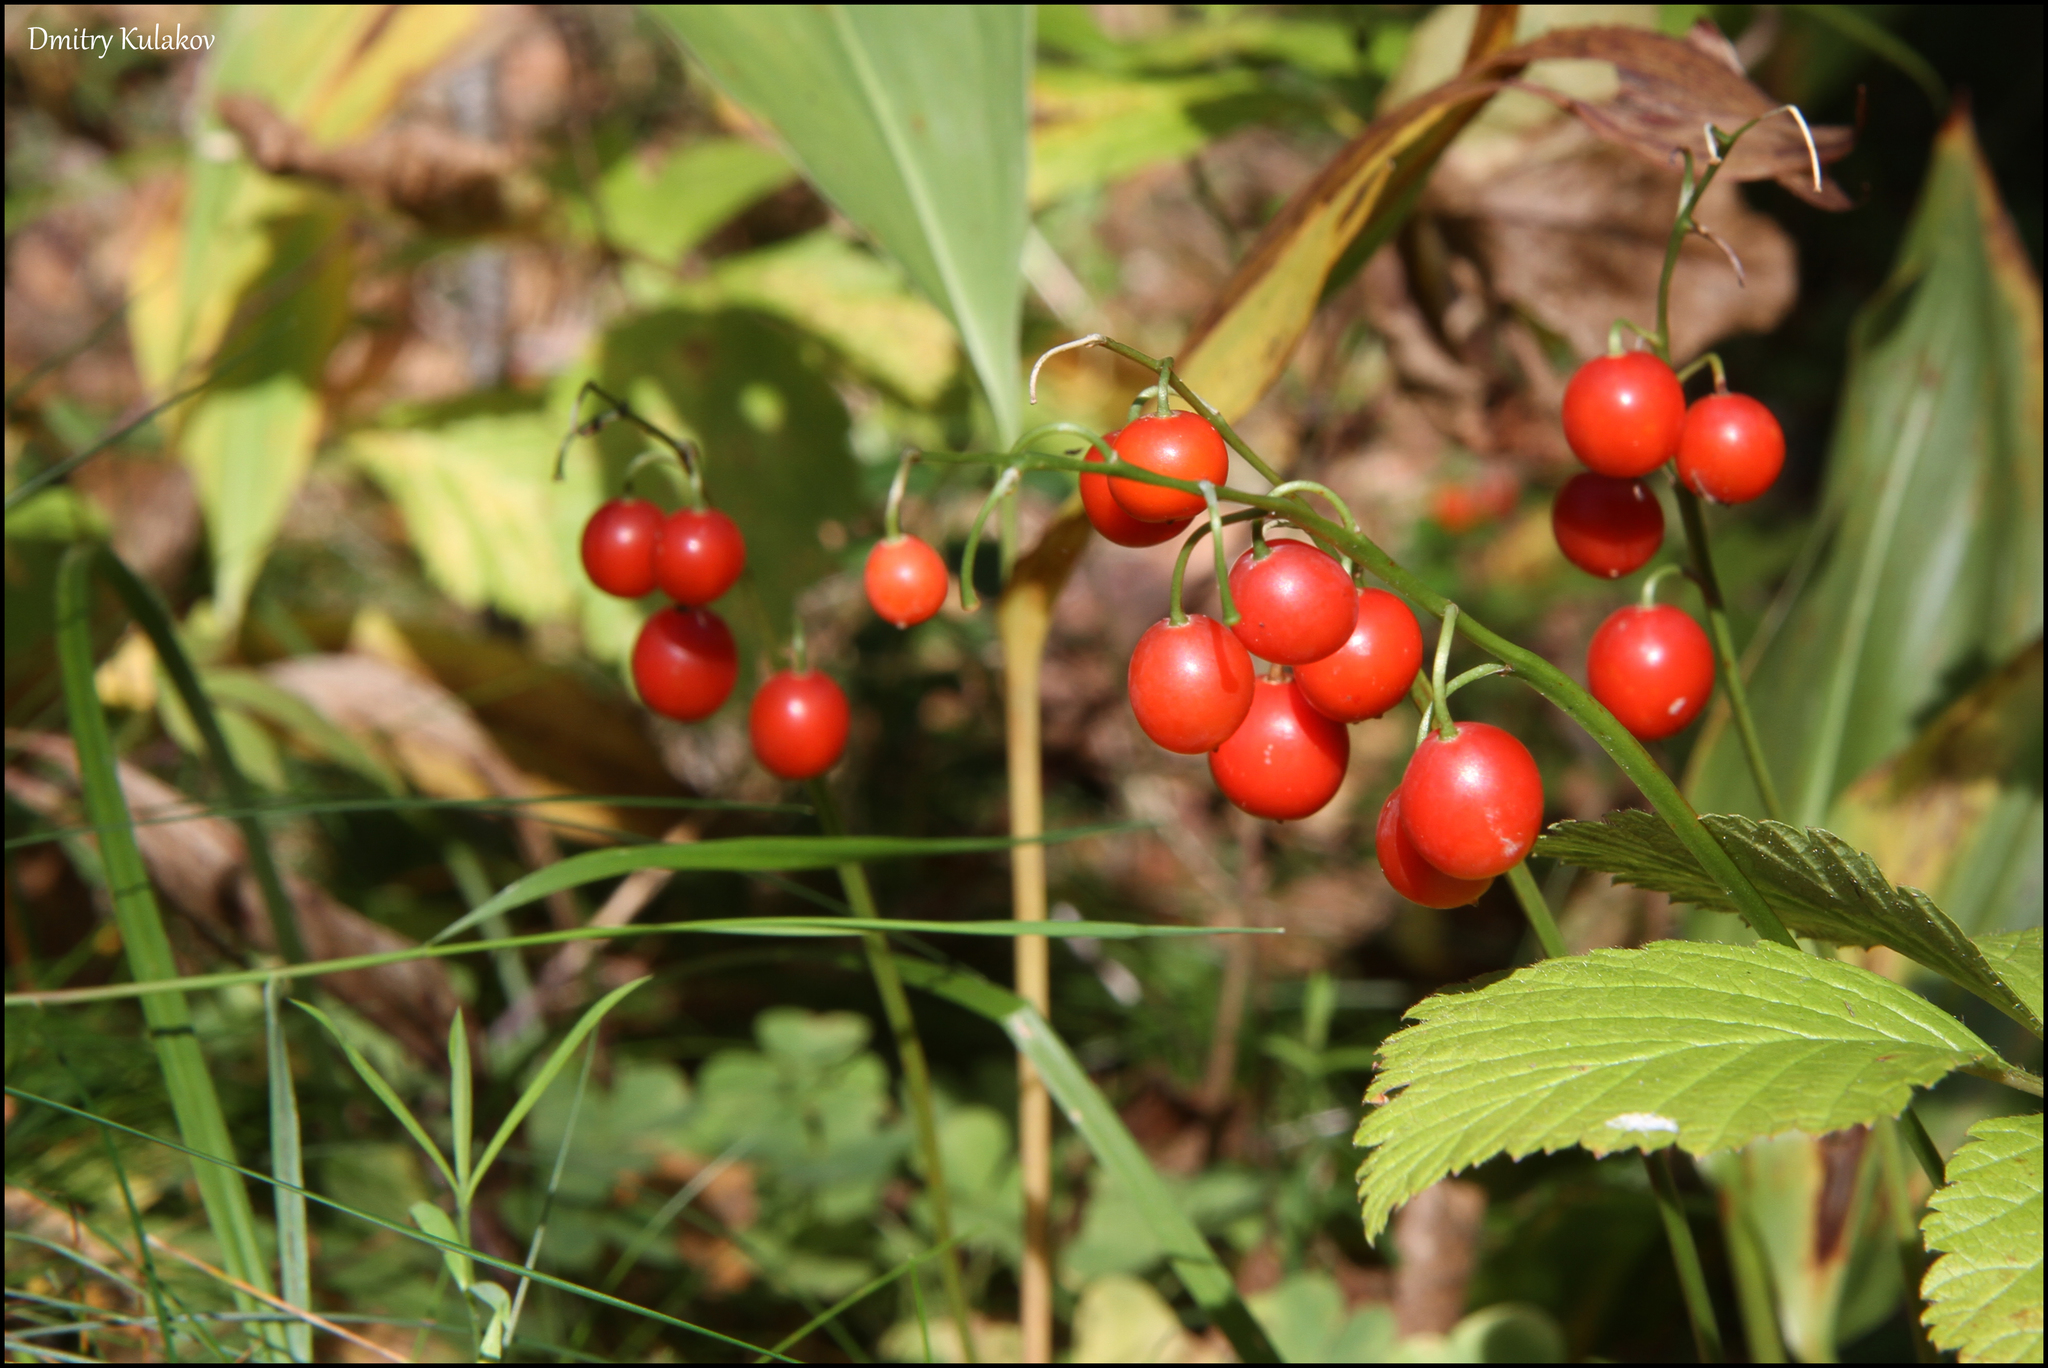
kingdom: Plantae
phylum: Tracheophyta
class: Liliopsida
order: Asparagales
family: Asparagaceae
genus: Convallaria
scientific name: Convallaria majalis
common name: Lily-of-the-valley
